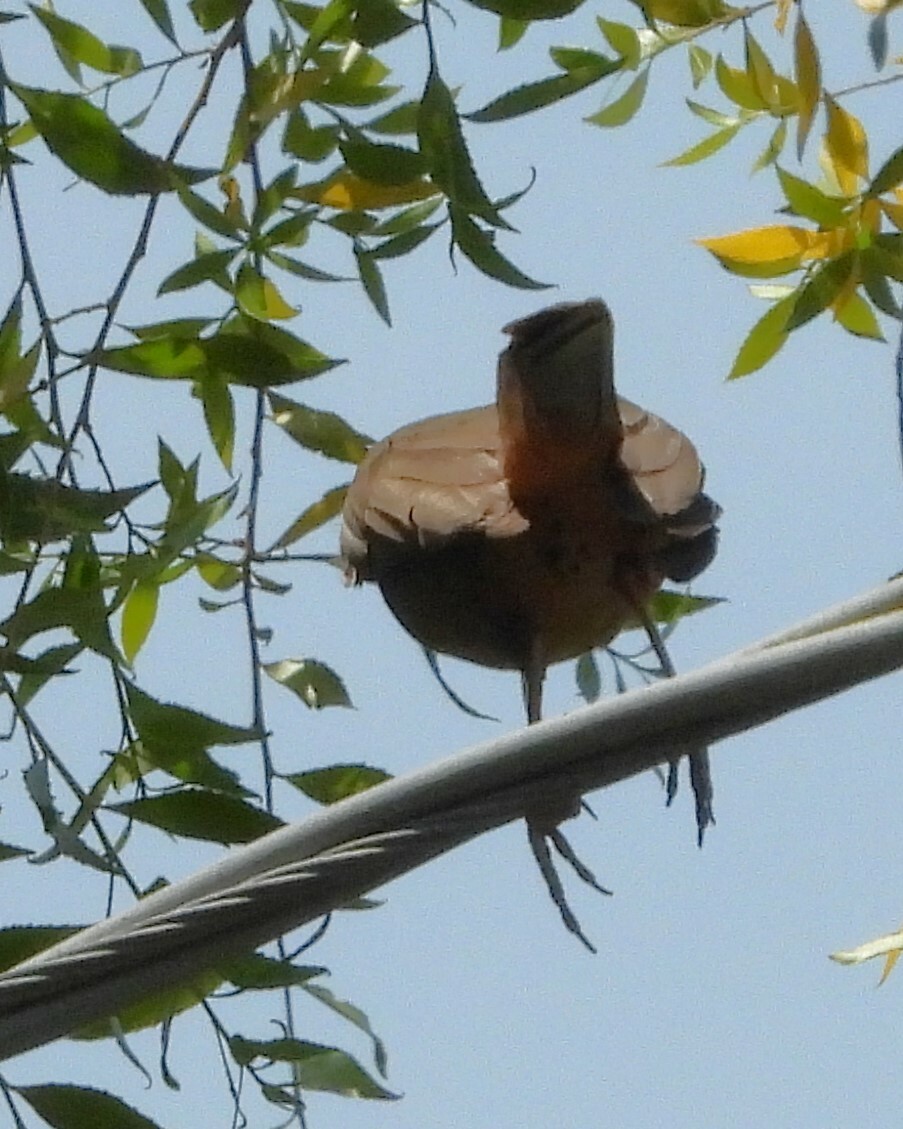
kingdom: Animalia
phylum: Chordata
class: Aves
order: Passeriformes
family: Passerellidae
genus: Melozone
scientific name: Melozone crissalis
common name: California towhee
